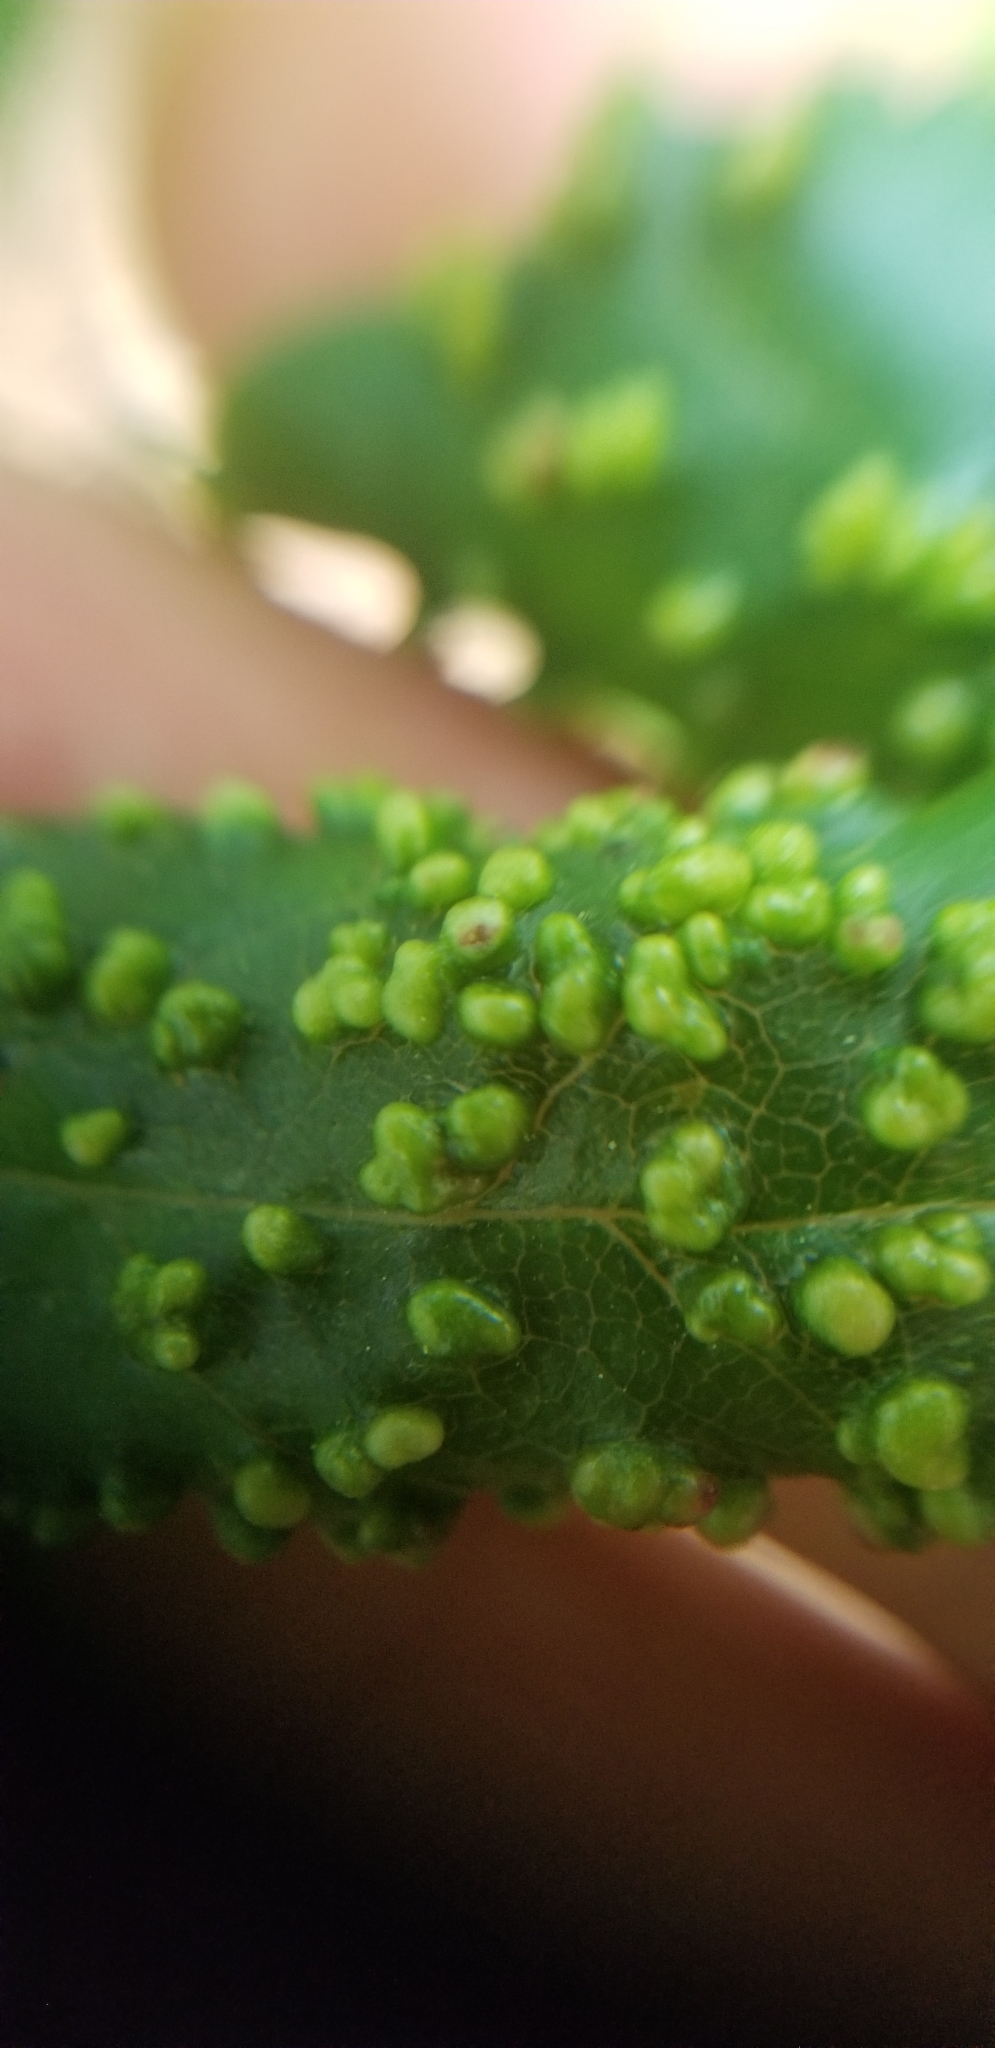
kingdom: Animalia
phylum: Arthropoda
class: Arachnida
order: Trombidiformes
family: Eriophyidae
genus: Aceria
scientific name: Aceria
